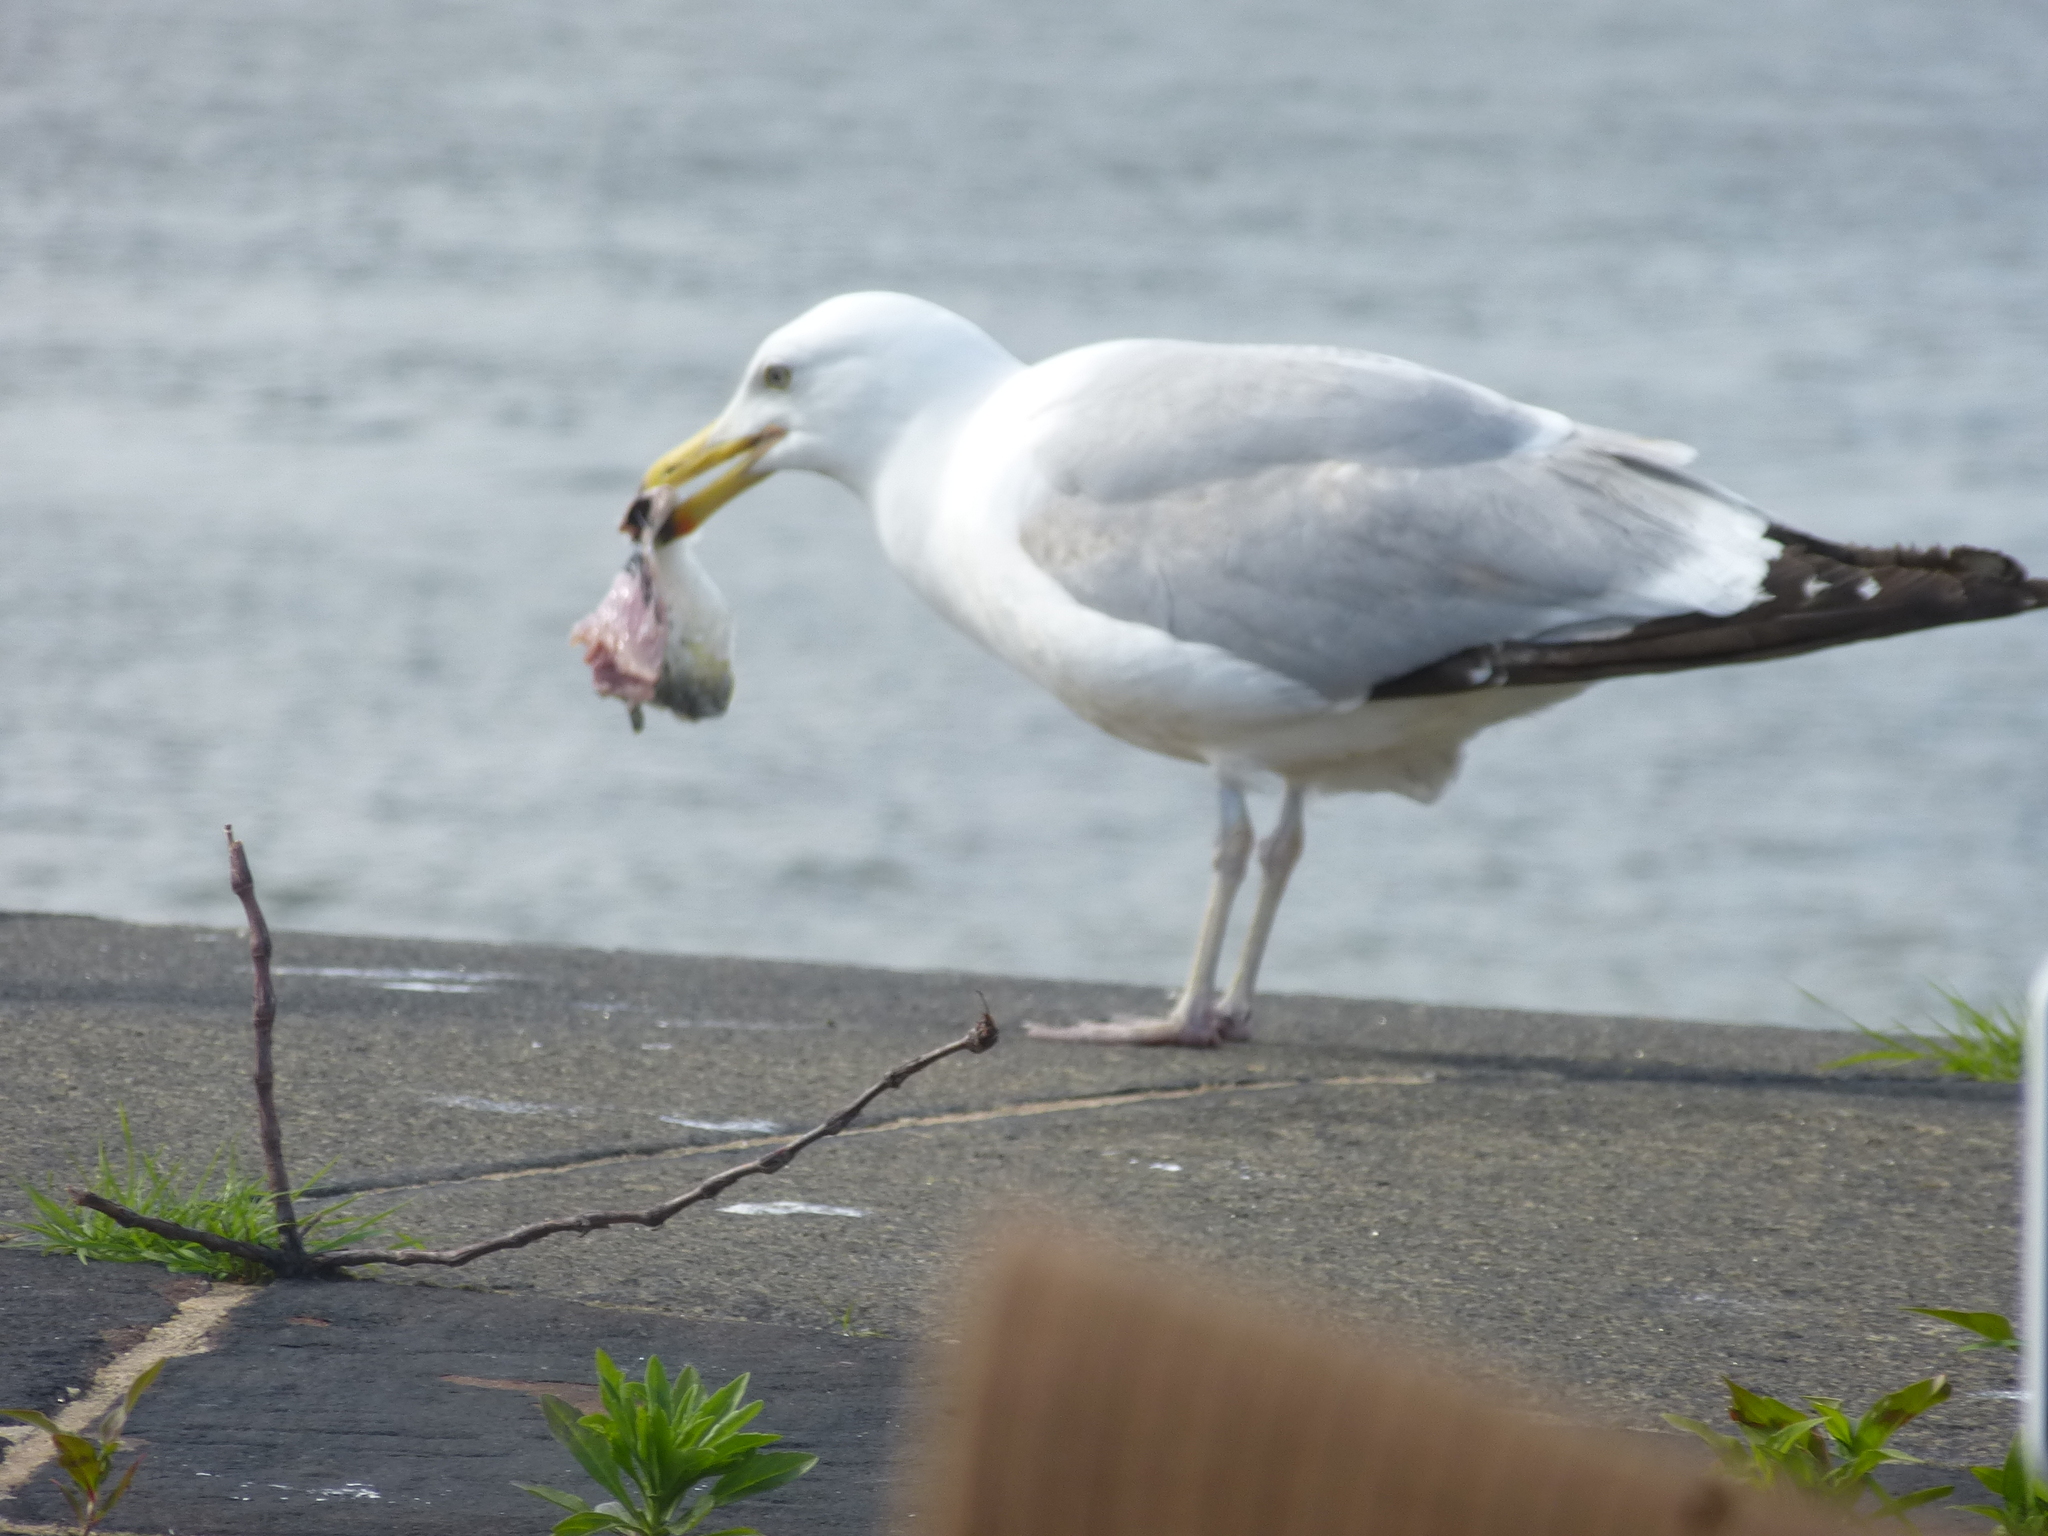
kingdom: Animalia
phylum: Chordata
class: Aves
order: Charadriiformes
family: Laridae
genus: Larus
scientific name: Larus argentatus
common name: Herring gull
